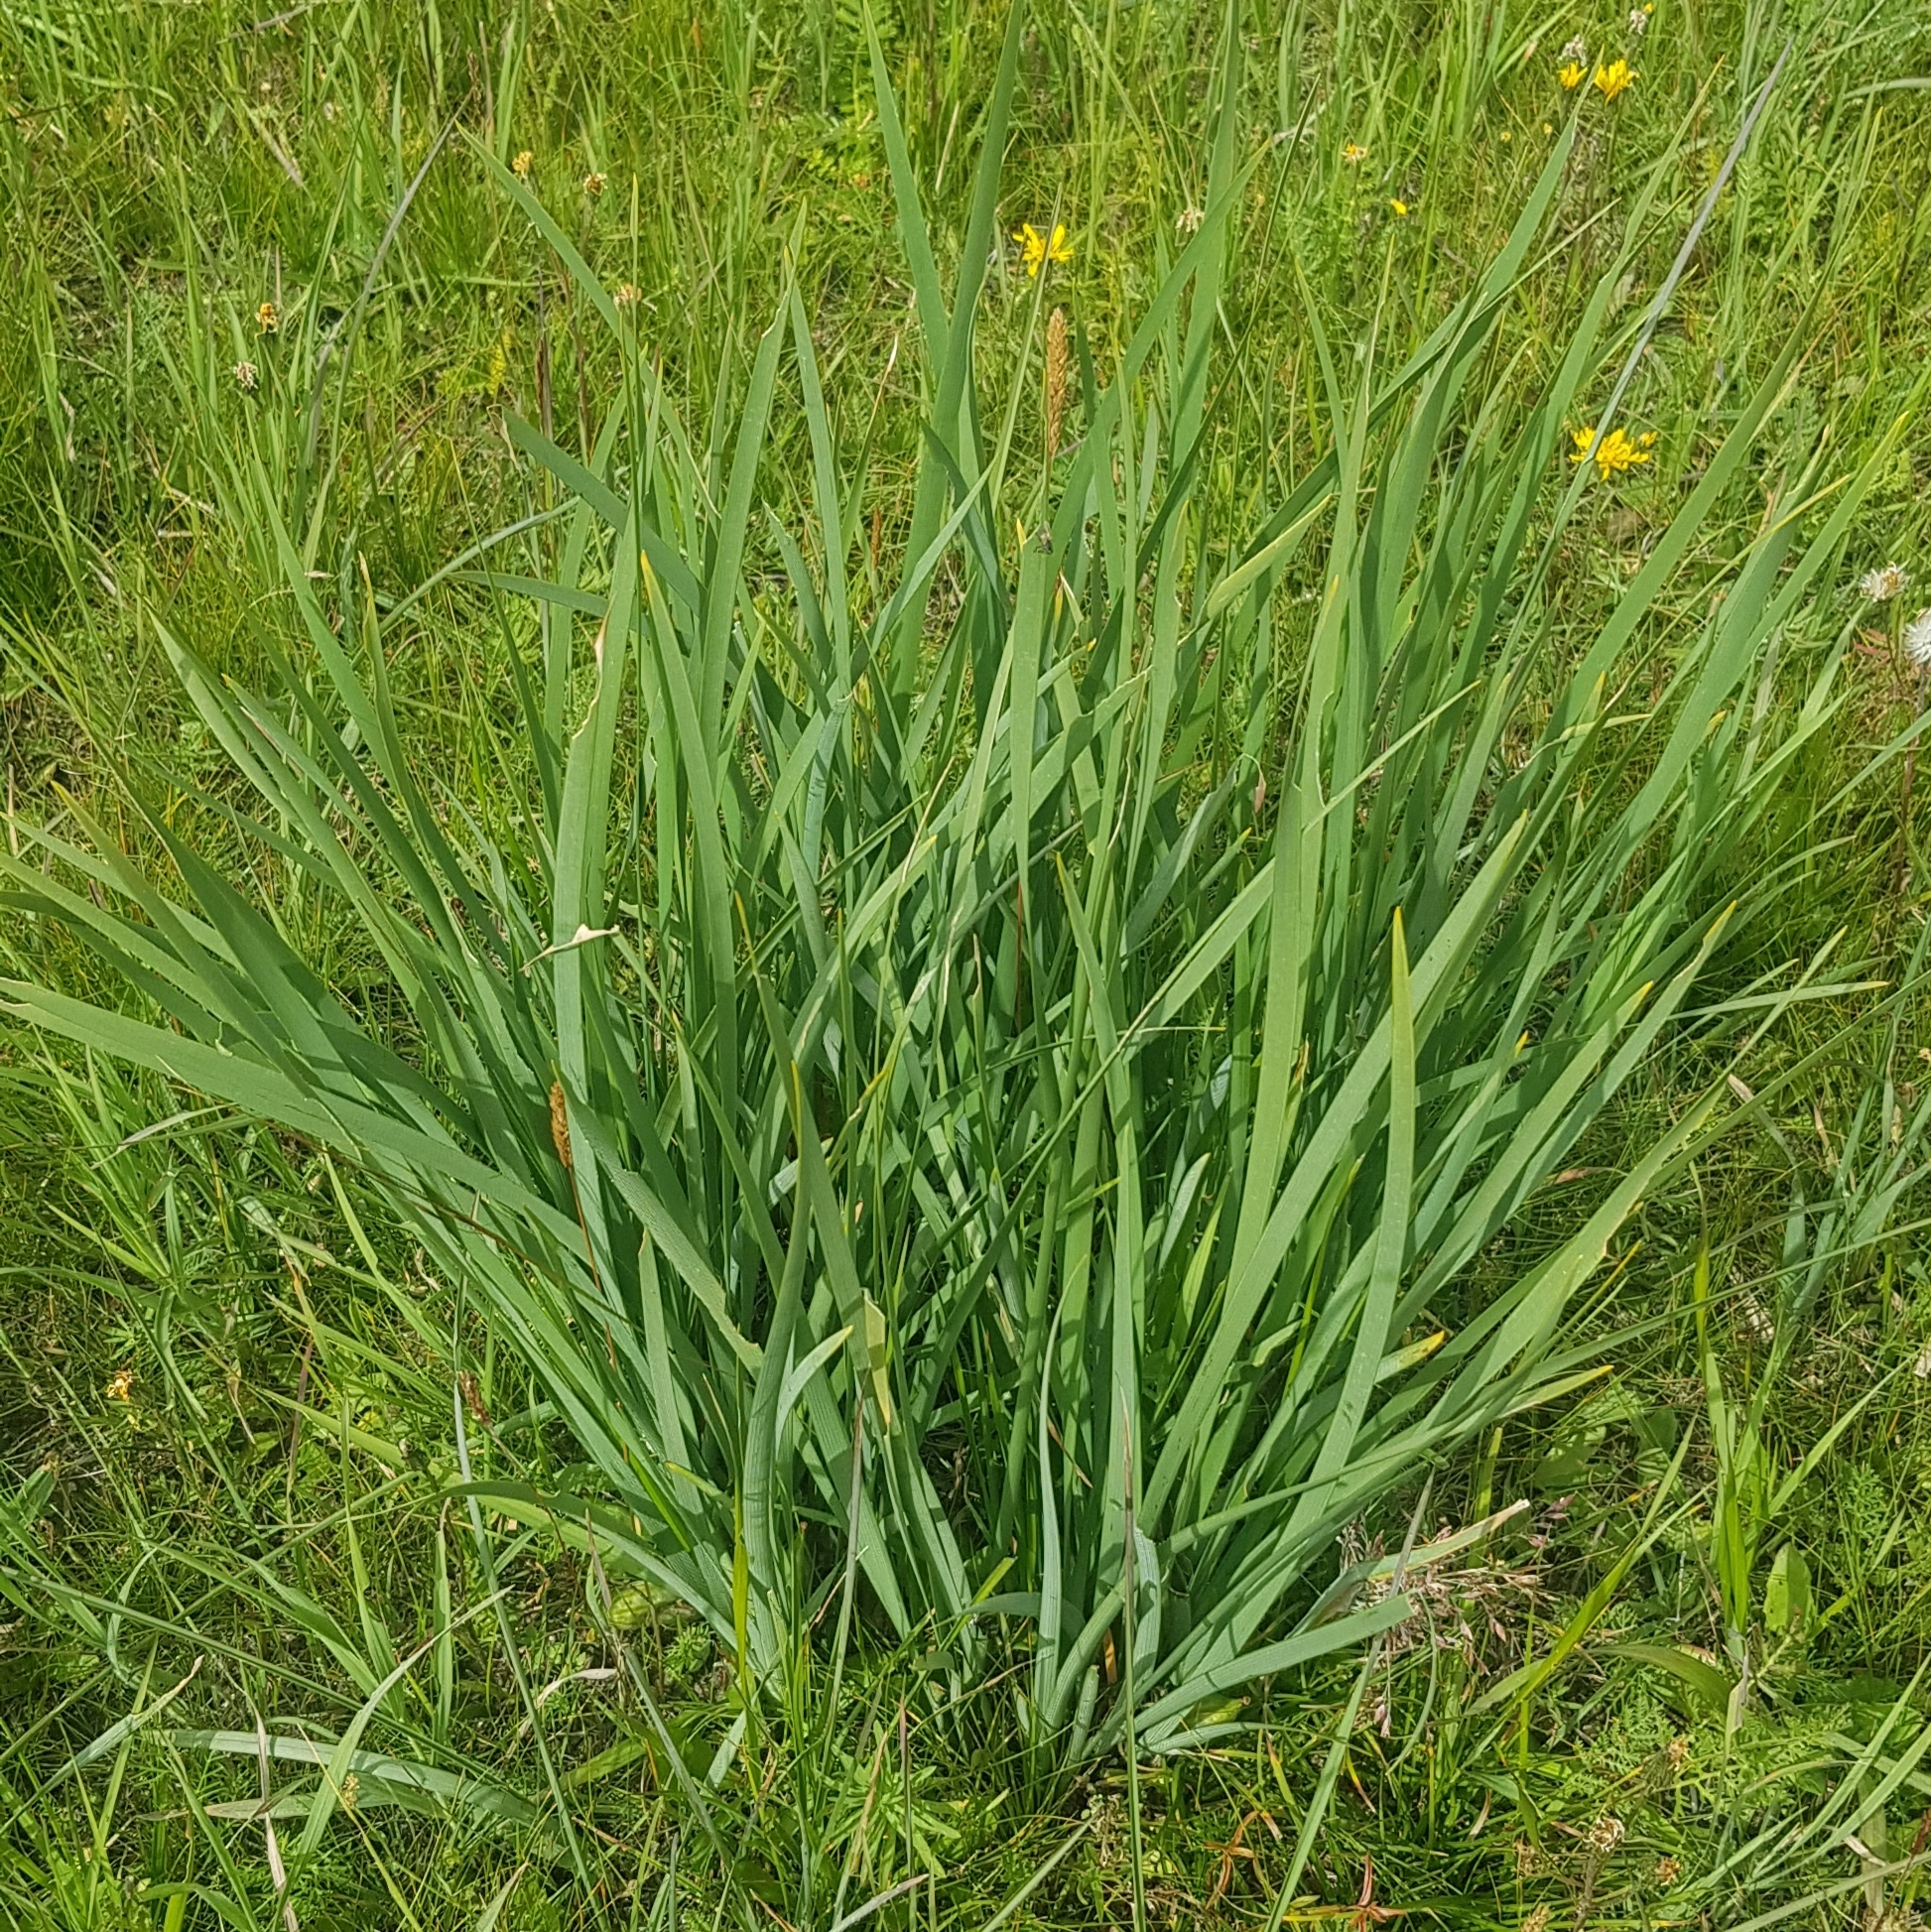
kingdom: Plantae
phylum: Tracheophyta
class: Liliopsida
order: Asparagales
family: Iridaceae
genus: Iris
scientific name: Iris lactea
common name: White-flower chinese iris
